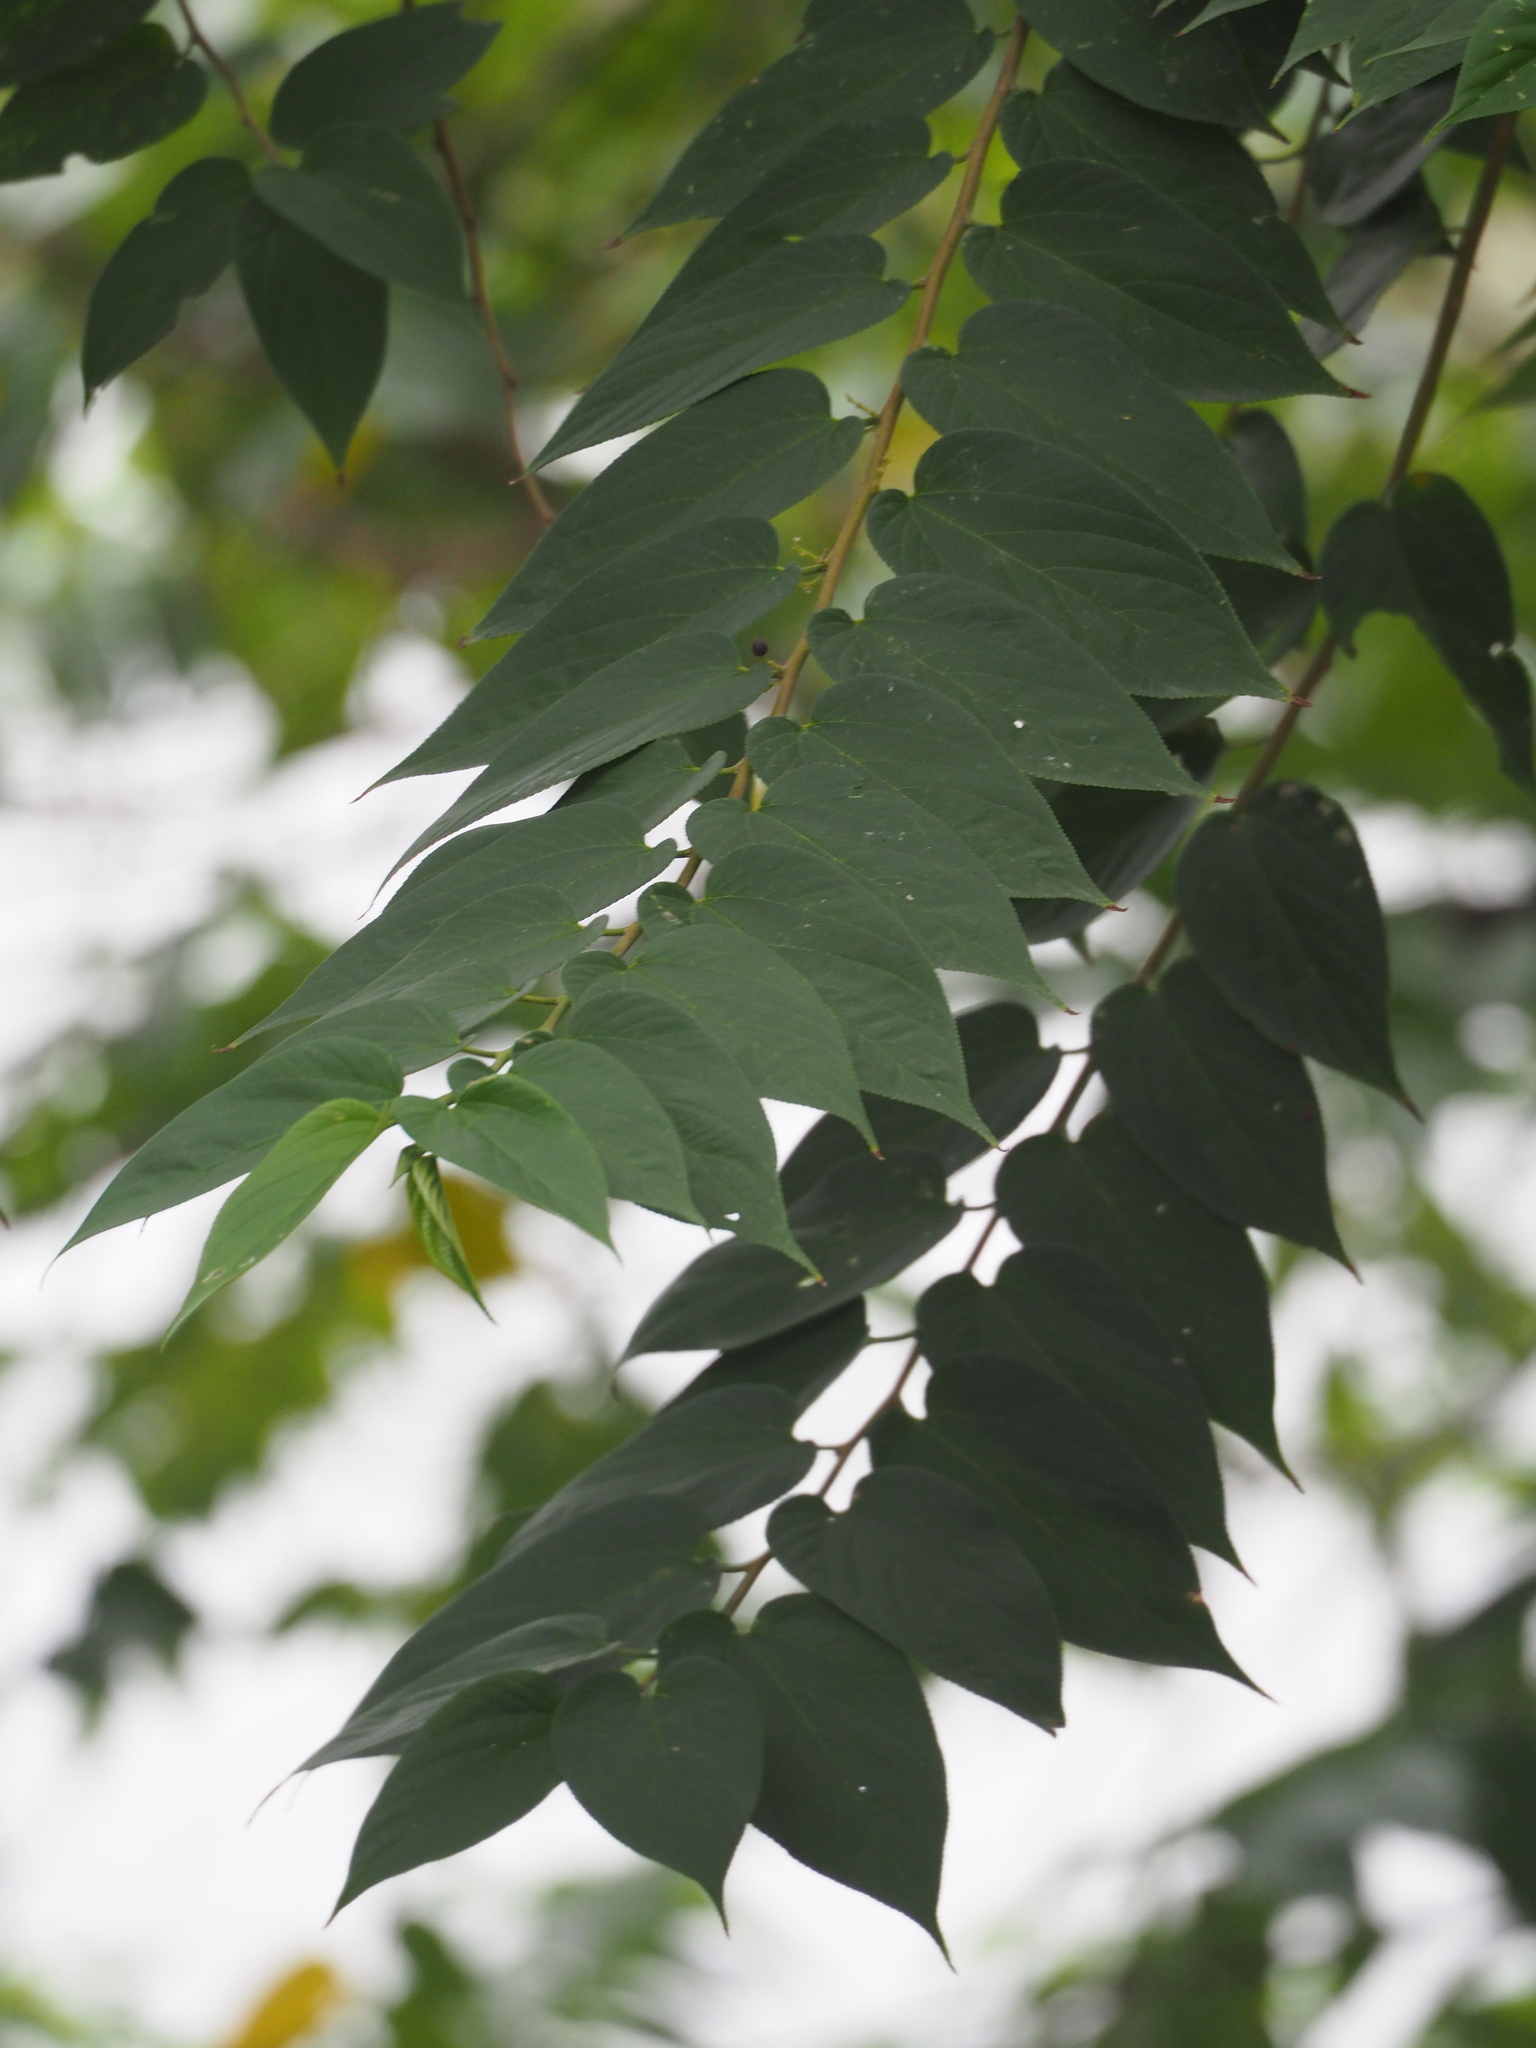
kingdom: Plantae
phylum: Tracheophyta
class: Magnoliopsida
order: Rosales
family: Cannabaceae
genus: Trema
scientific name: Trema orientale
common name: Indian charcoal tree
